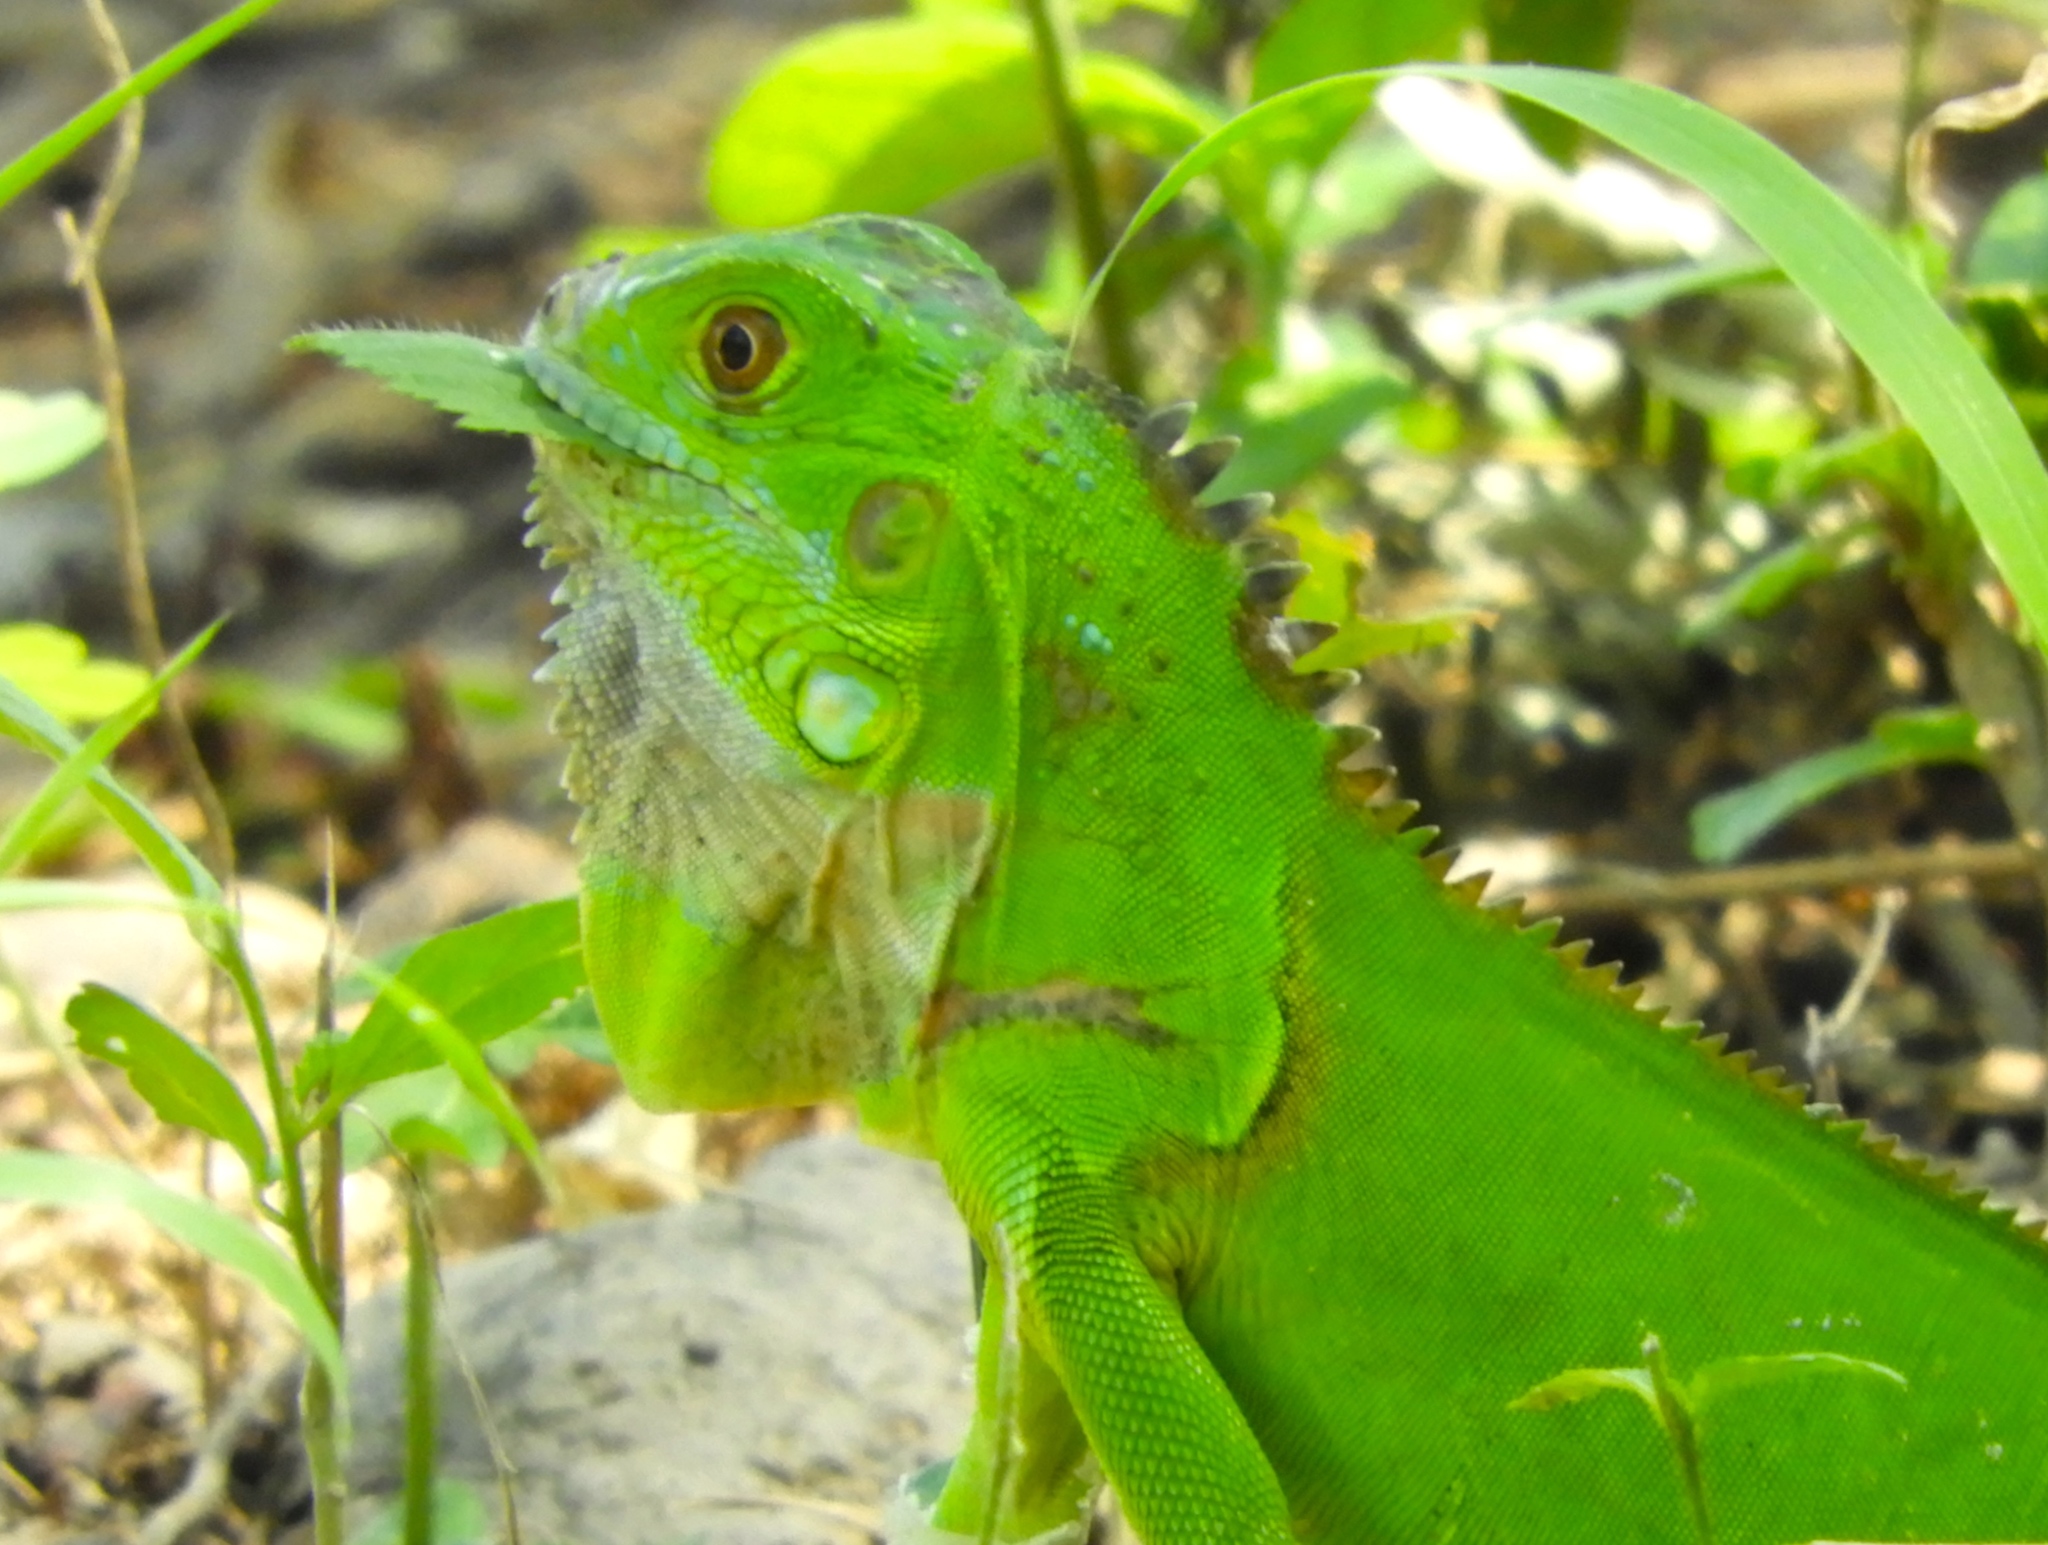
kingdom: Animalia
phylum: Chordata
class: Squamata
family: Iguanidae
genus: Iguana
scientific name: Iguana iguana
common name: Green iguana
